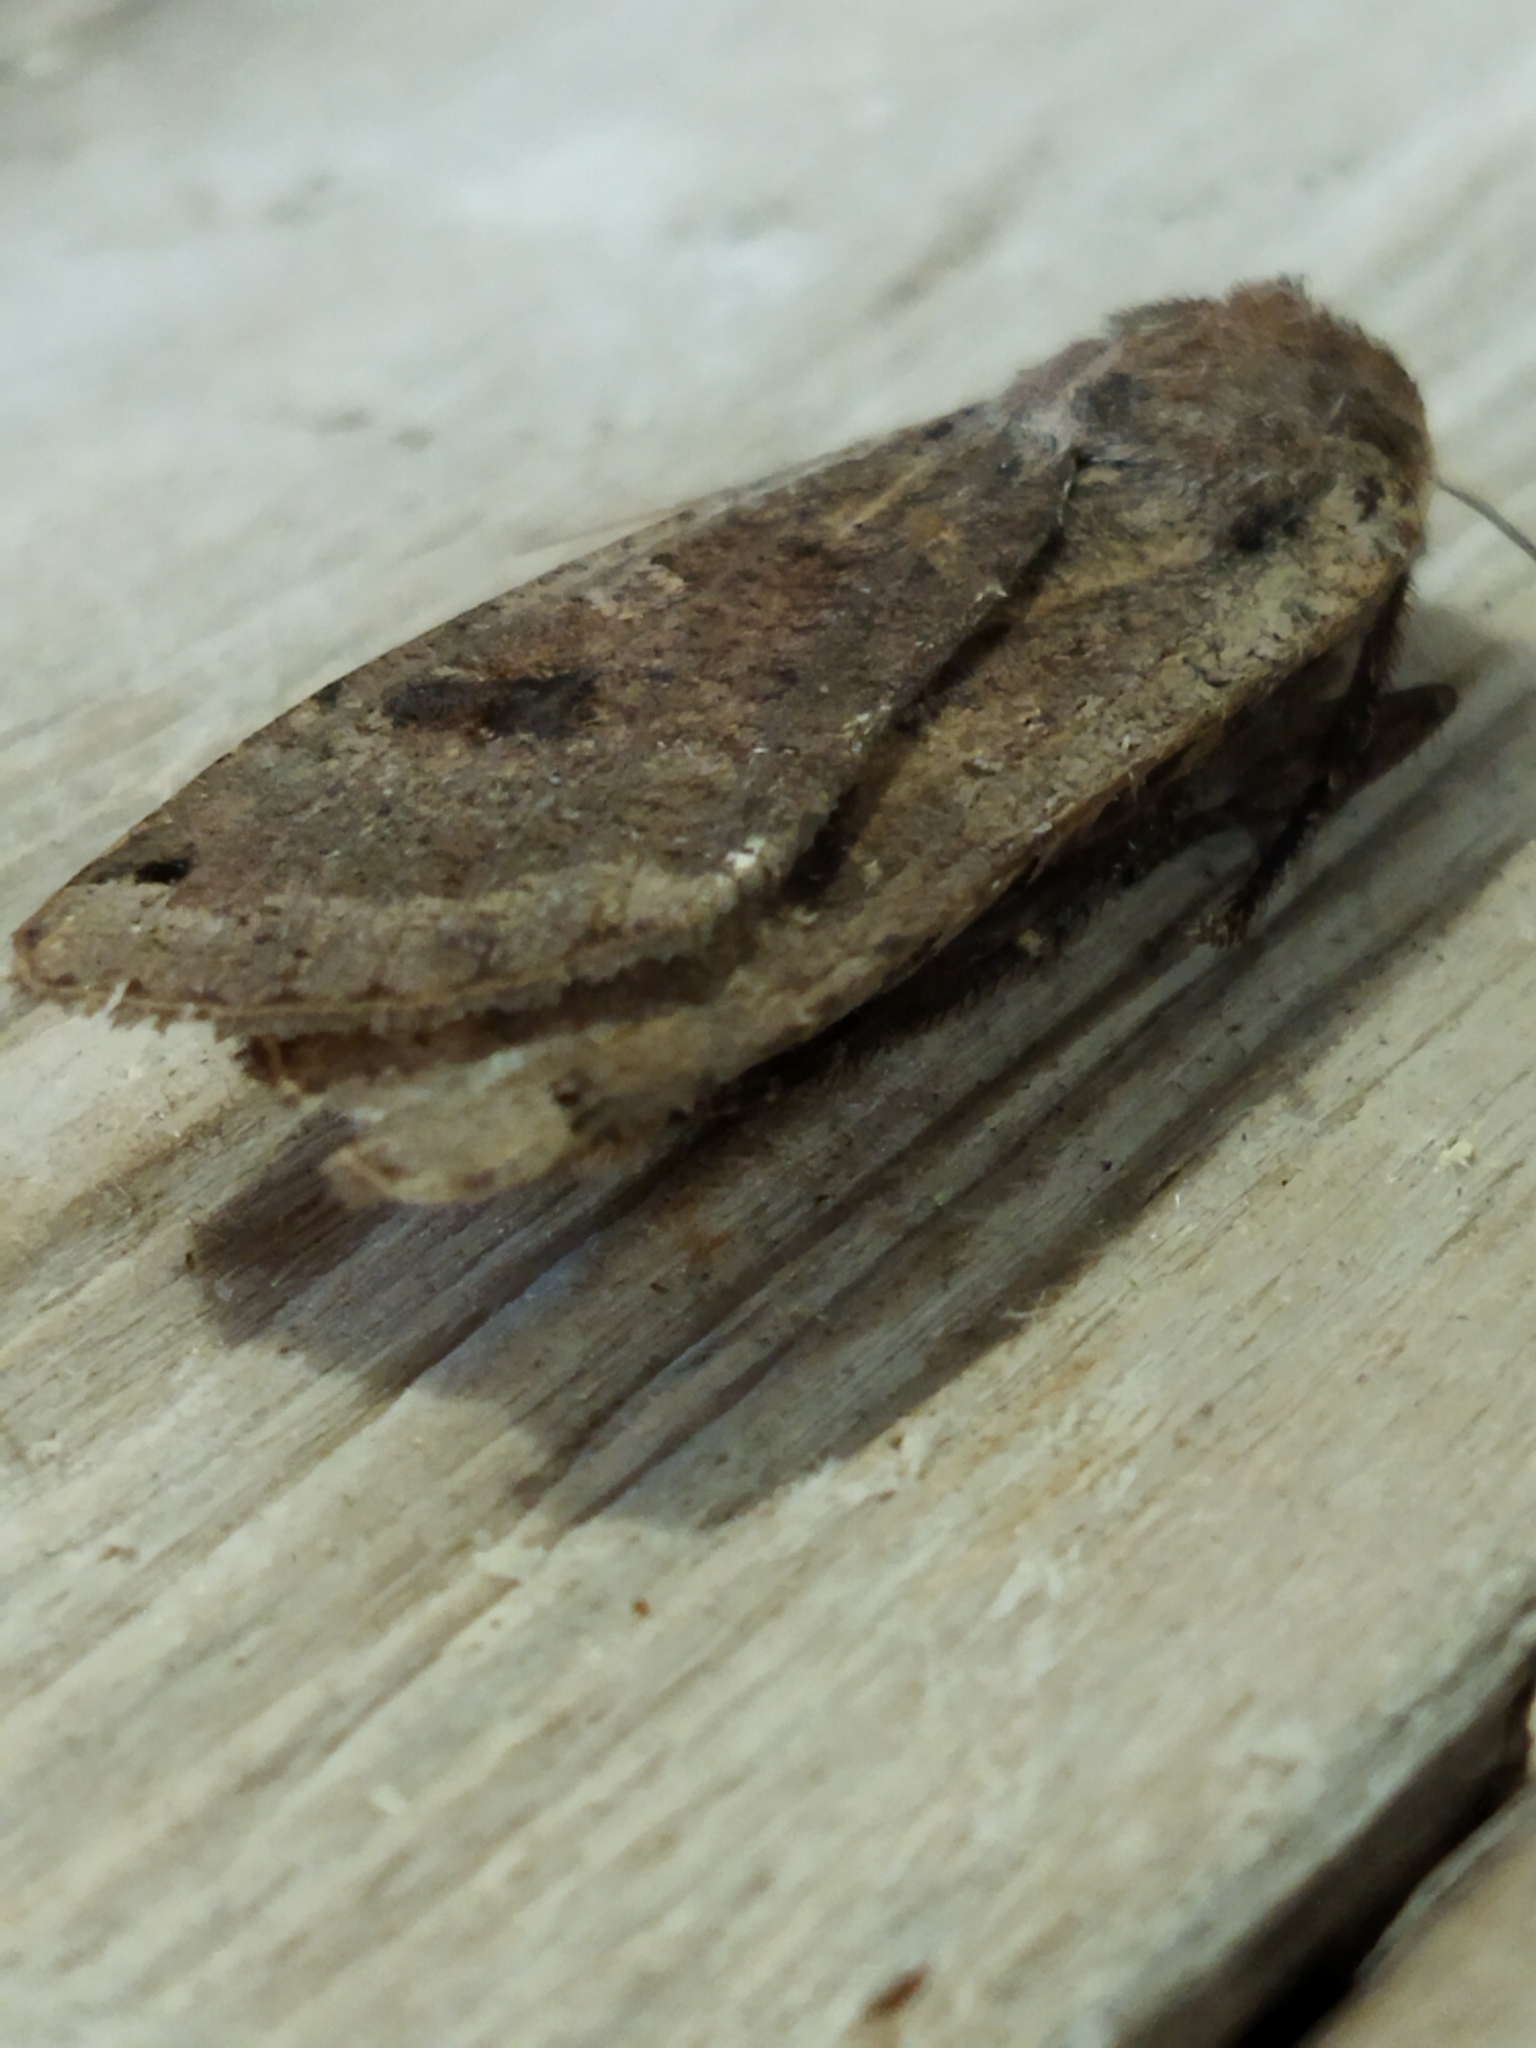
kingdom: Animalia
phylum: Arthropoda
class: Insecta
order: Lepidoptera
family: Noctuidae
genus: Noctua
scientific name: Noctua pronuba
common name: Large yellow underwing
